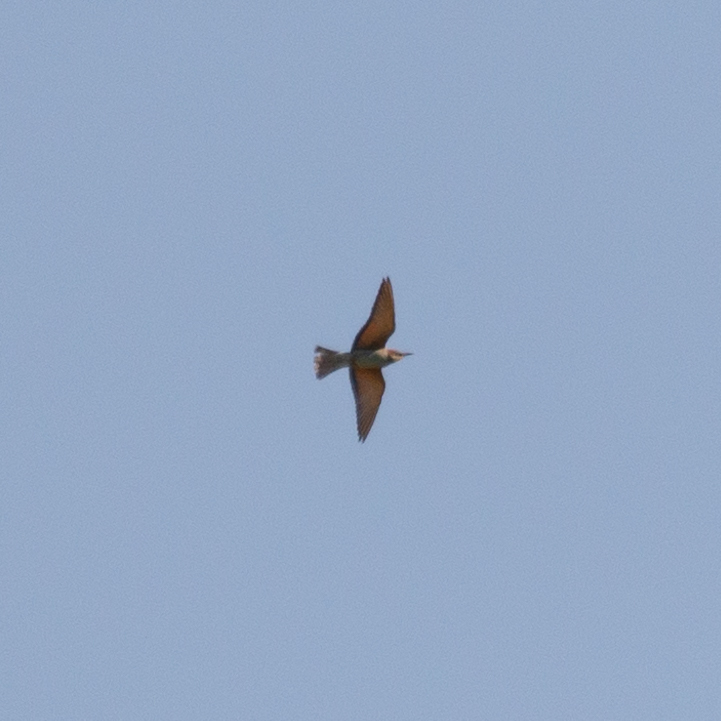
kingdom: Animalia
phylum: Chordata
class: Aves
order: Coraciiformes
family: Meropidae
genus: Merops
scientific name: Merops apiaster
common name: European bee-eater
